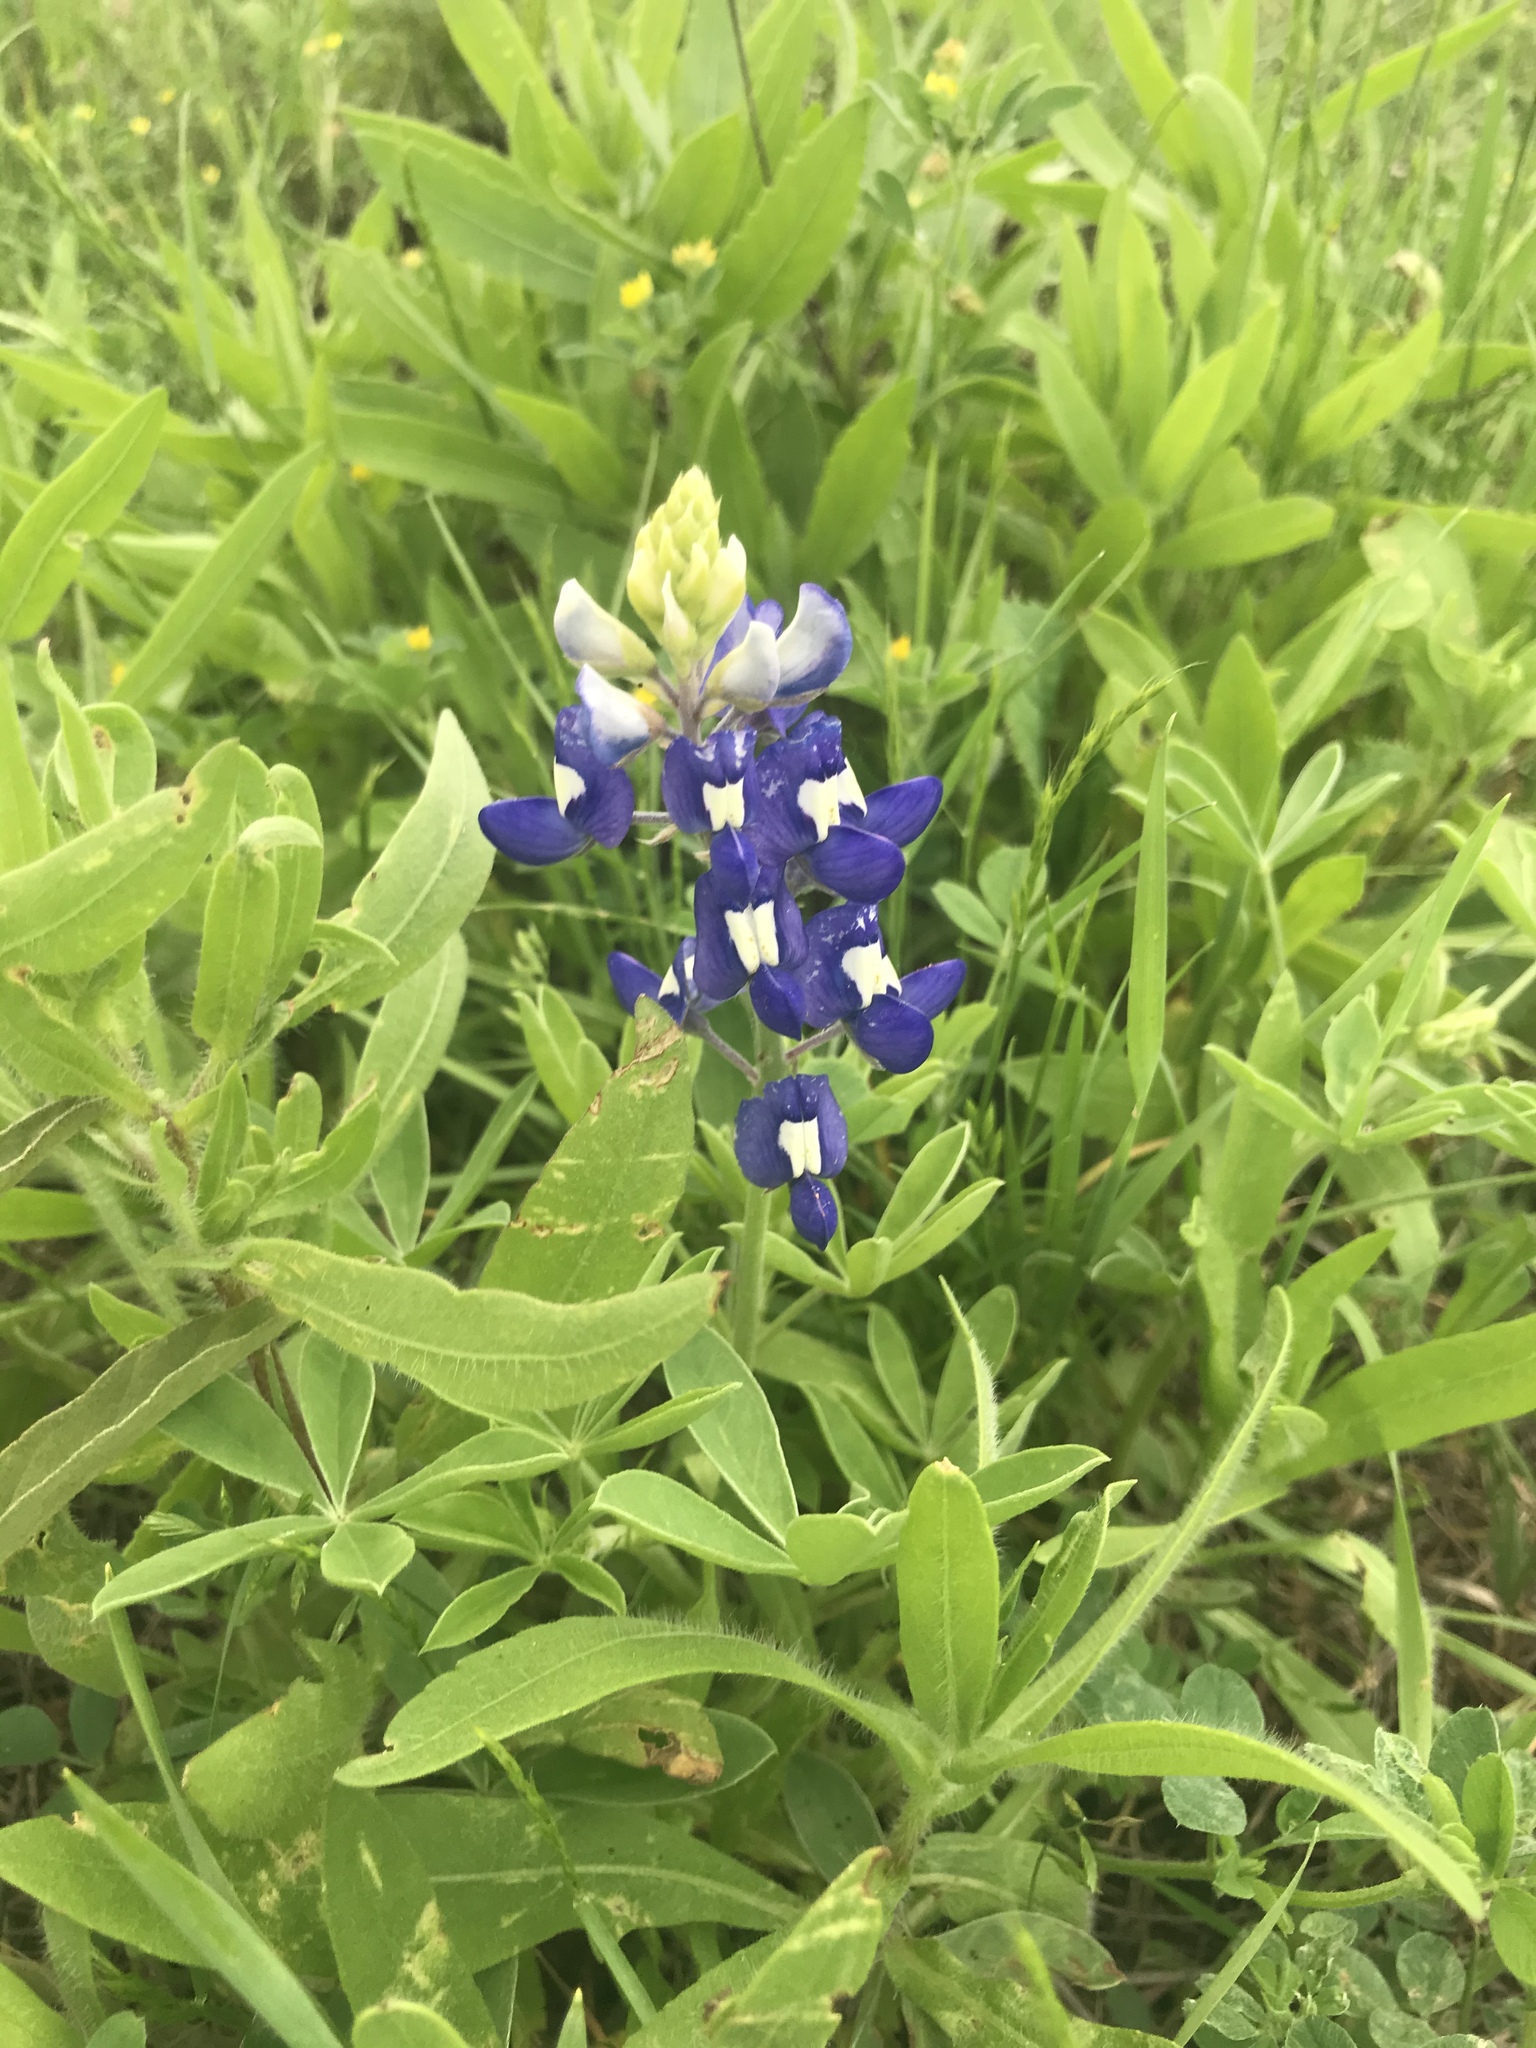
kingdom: Plantae
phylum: Tracheophyta
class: Magnoliopsida
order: Fabales
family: Fabaceae
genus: Lupinus
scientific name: Lupinus texensis
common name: Texas bluebonnet
